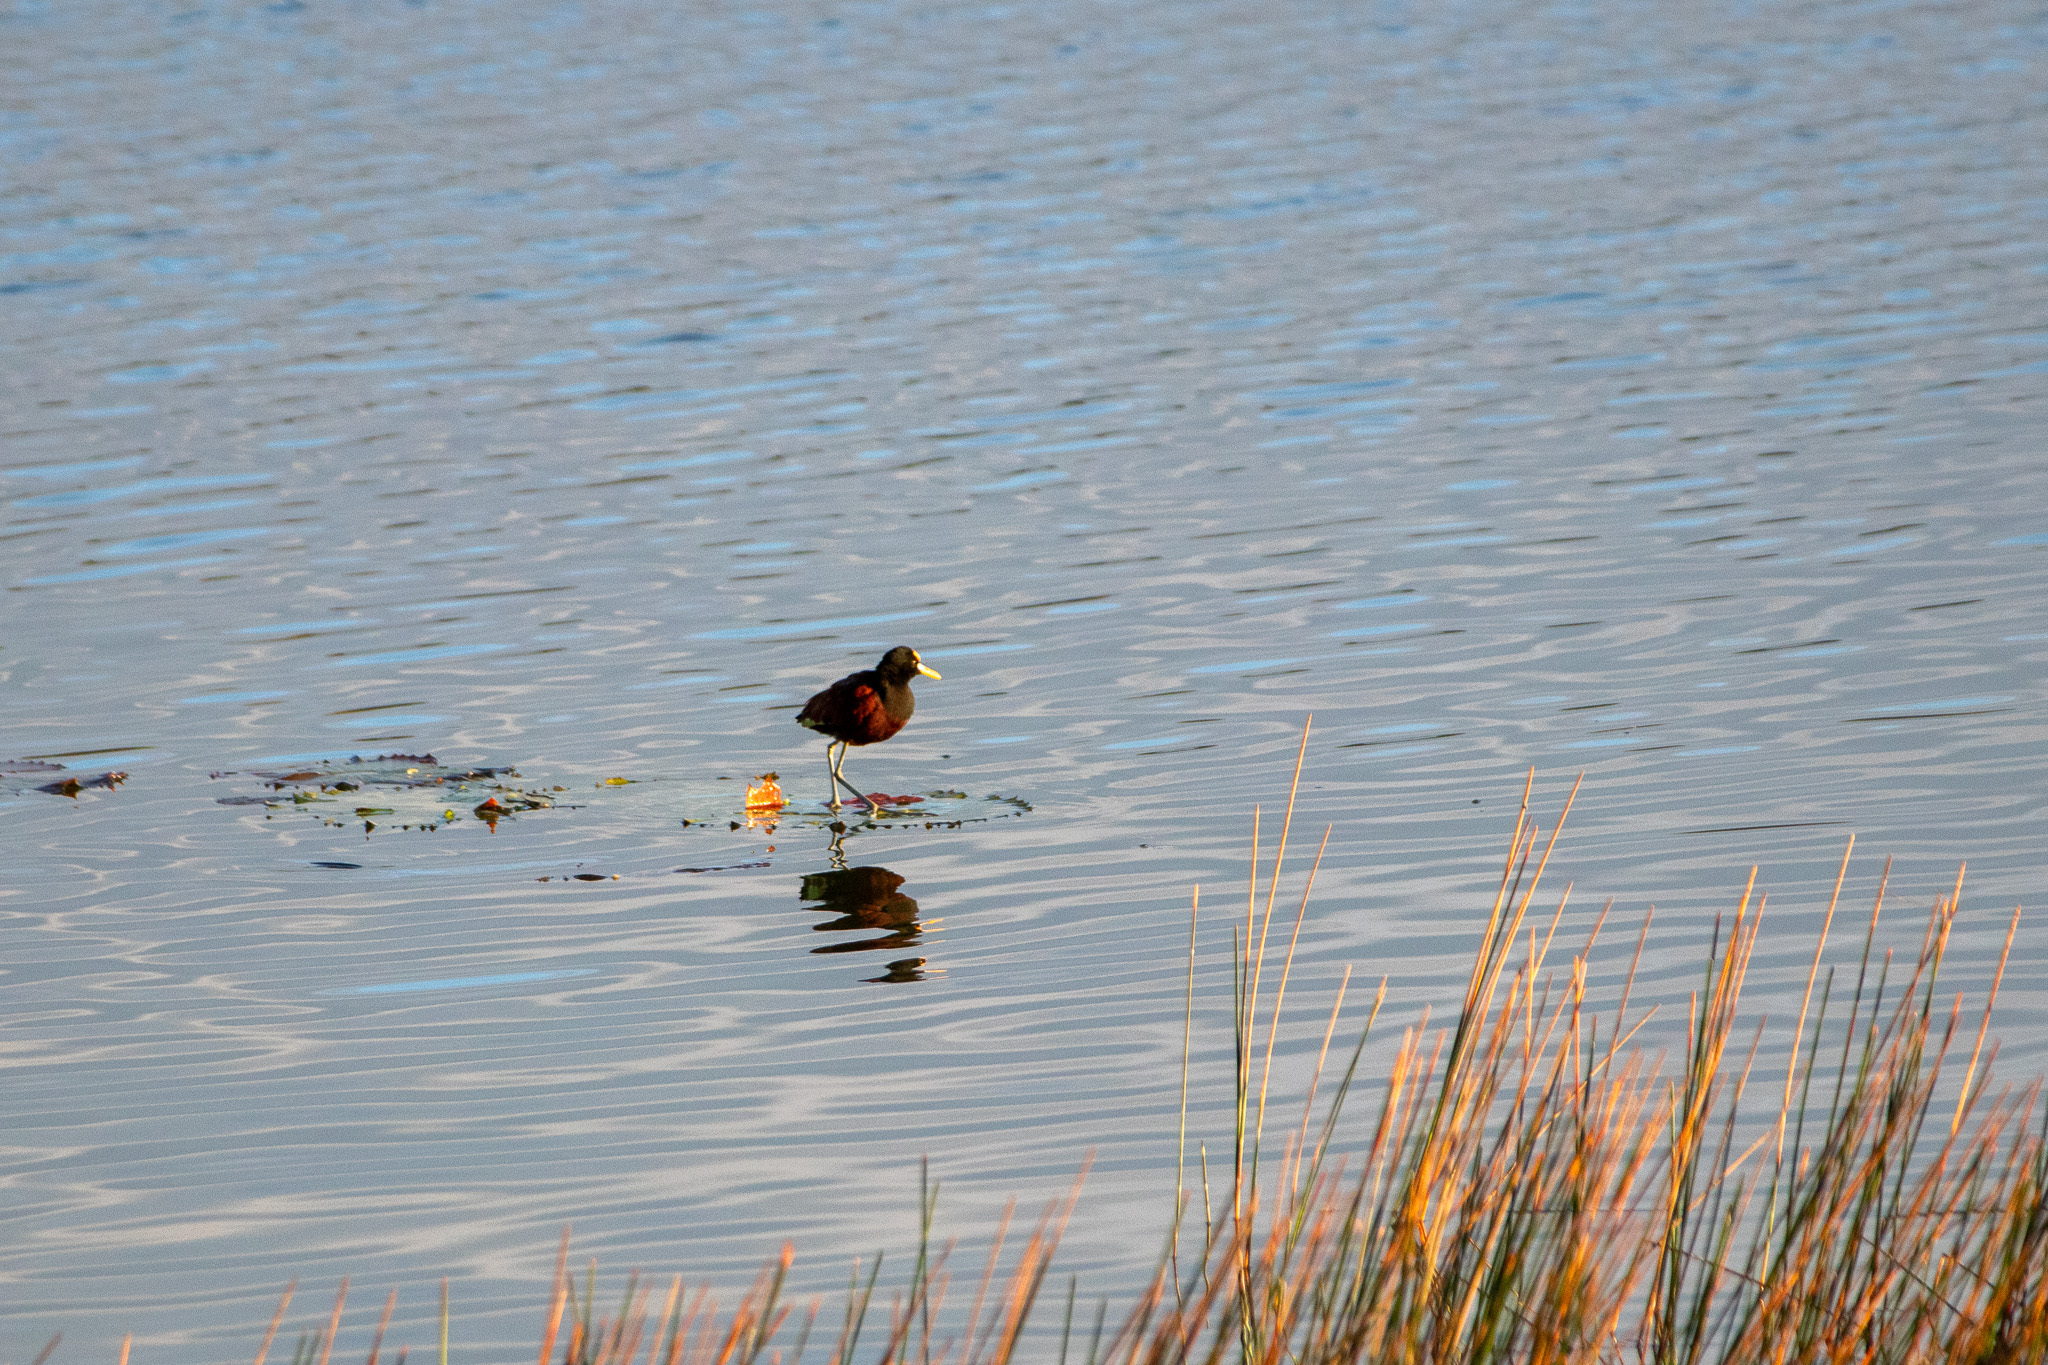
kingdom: Animalia
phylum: Chordata
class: Aves
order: Charadriiformes
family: Jacanidae
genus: Jacana
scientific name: Jacana spinosa
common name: Northern jacana
